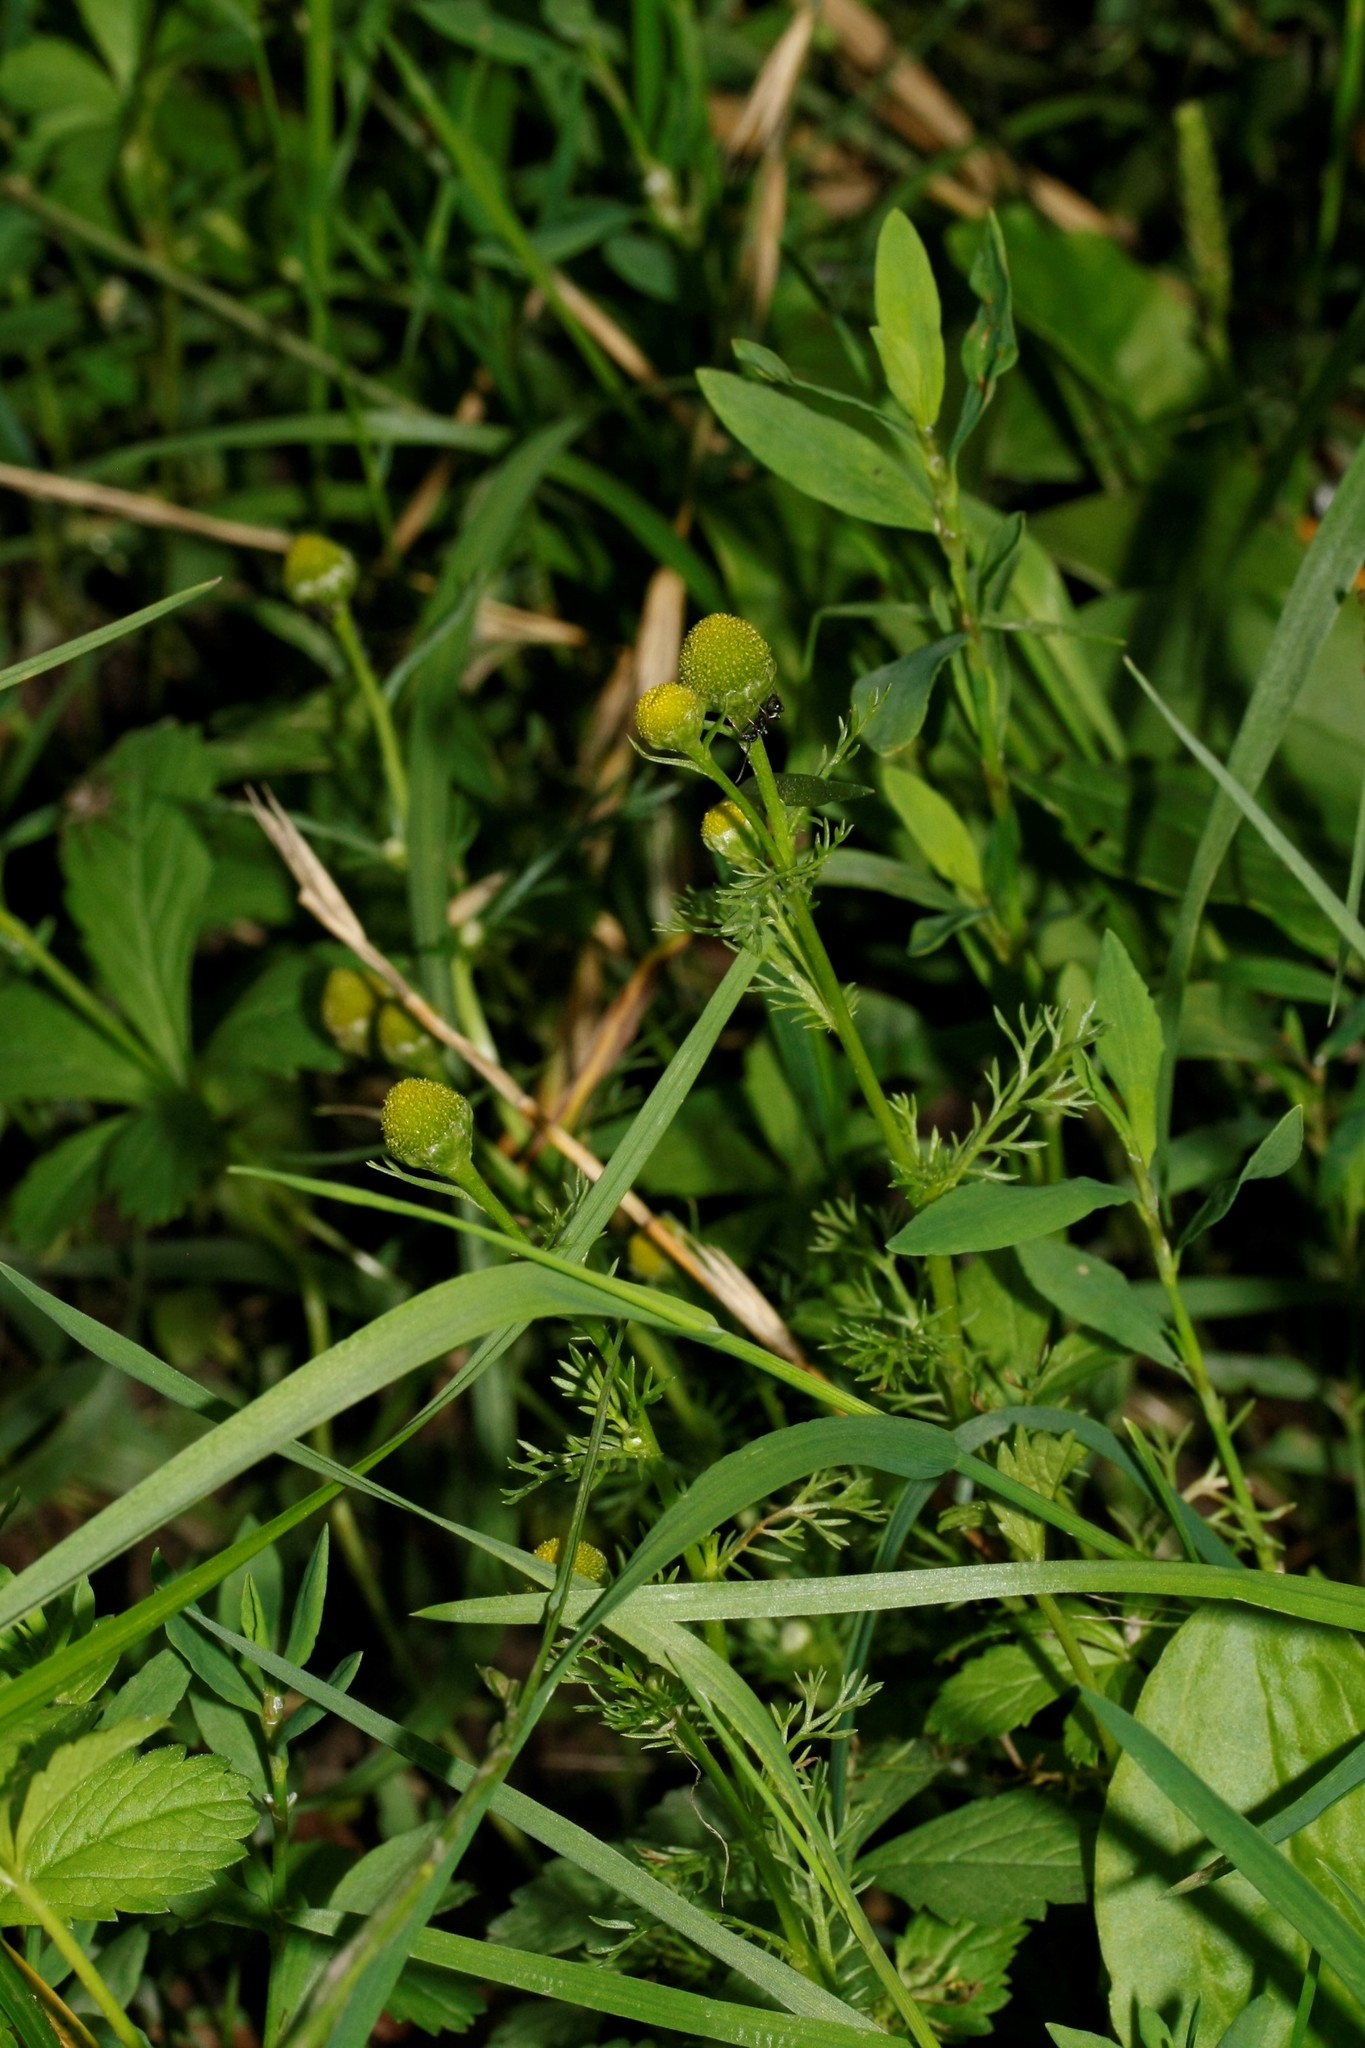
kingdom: Plantae
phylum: Tracheophyta
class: Magnoliopsida
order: Asterales
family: Asteraceae
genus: Matricaria
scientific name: Matricaria discoidea
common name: Disc mayweed
